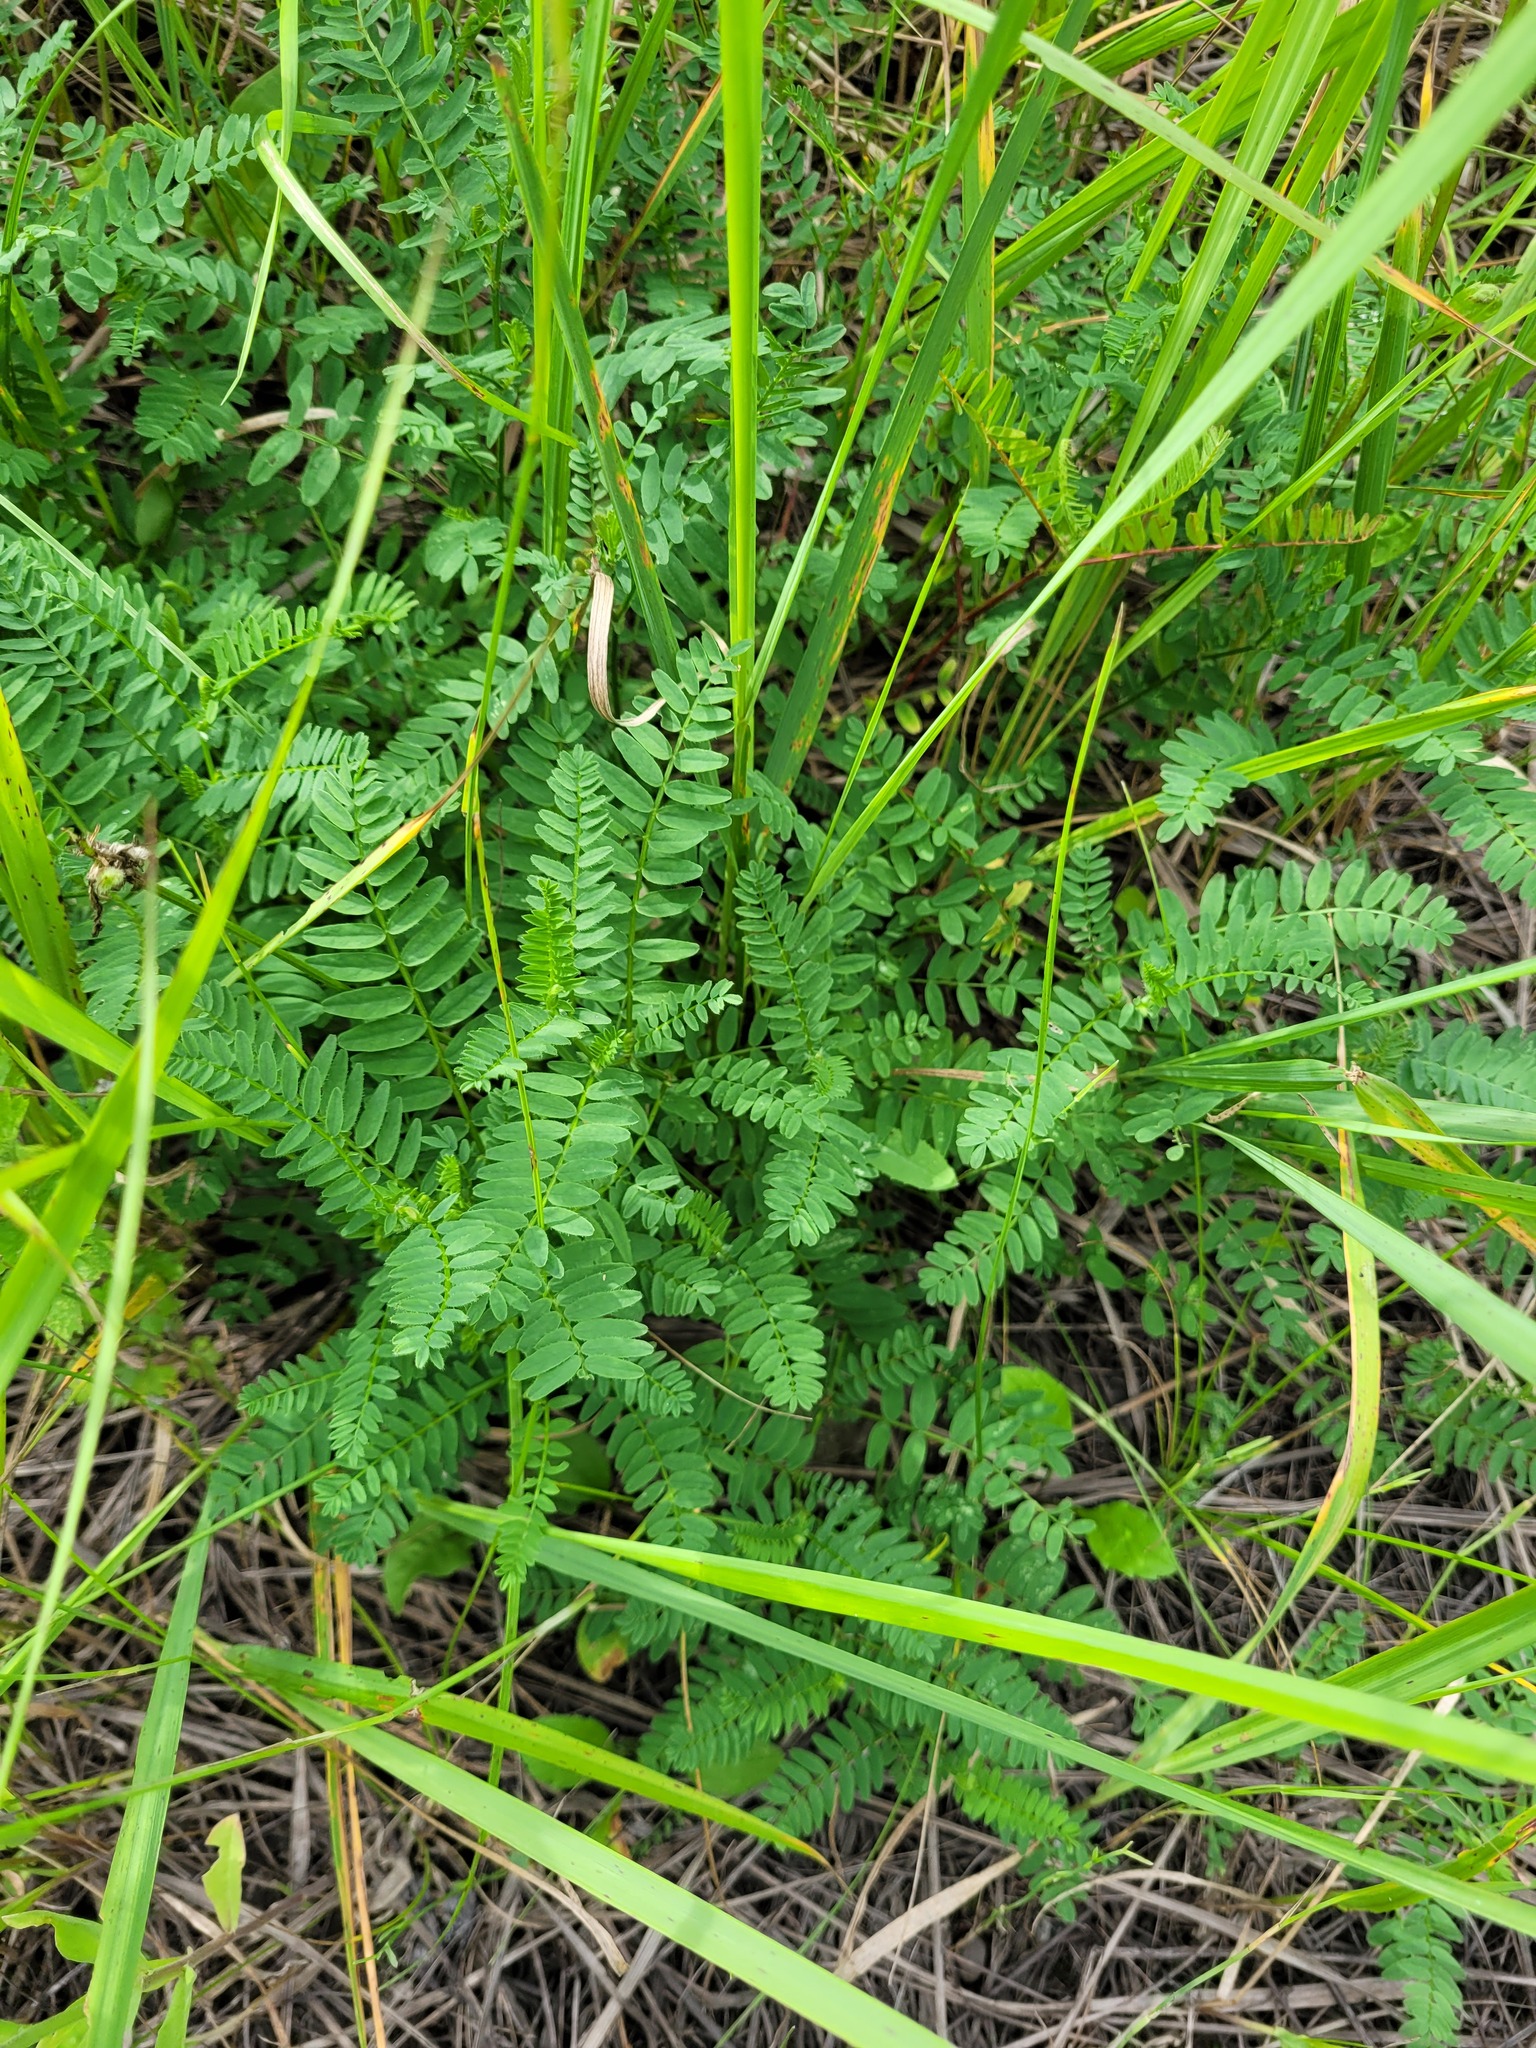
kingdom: Plantae
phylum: Tracheophyta
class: Magnoliopsida
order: Fabales
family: Fabaceae
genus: Astragalus
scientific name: Astragalus danicus
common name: Purple milk-vetch
